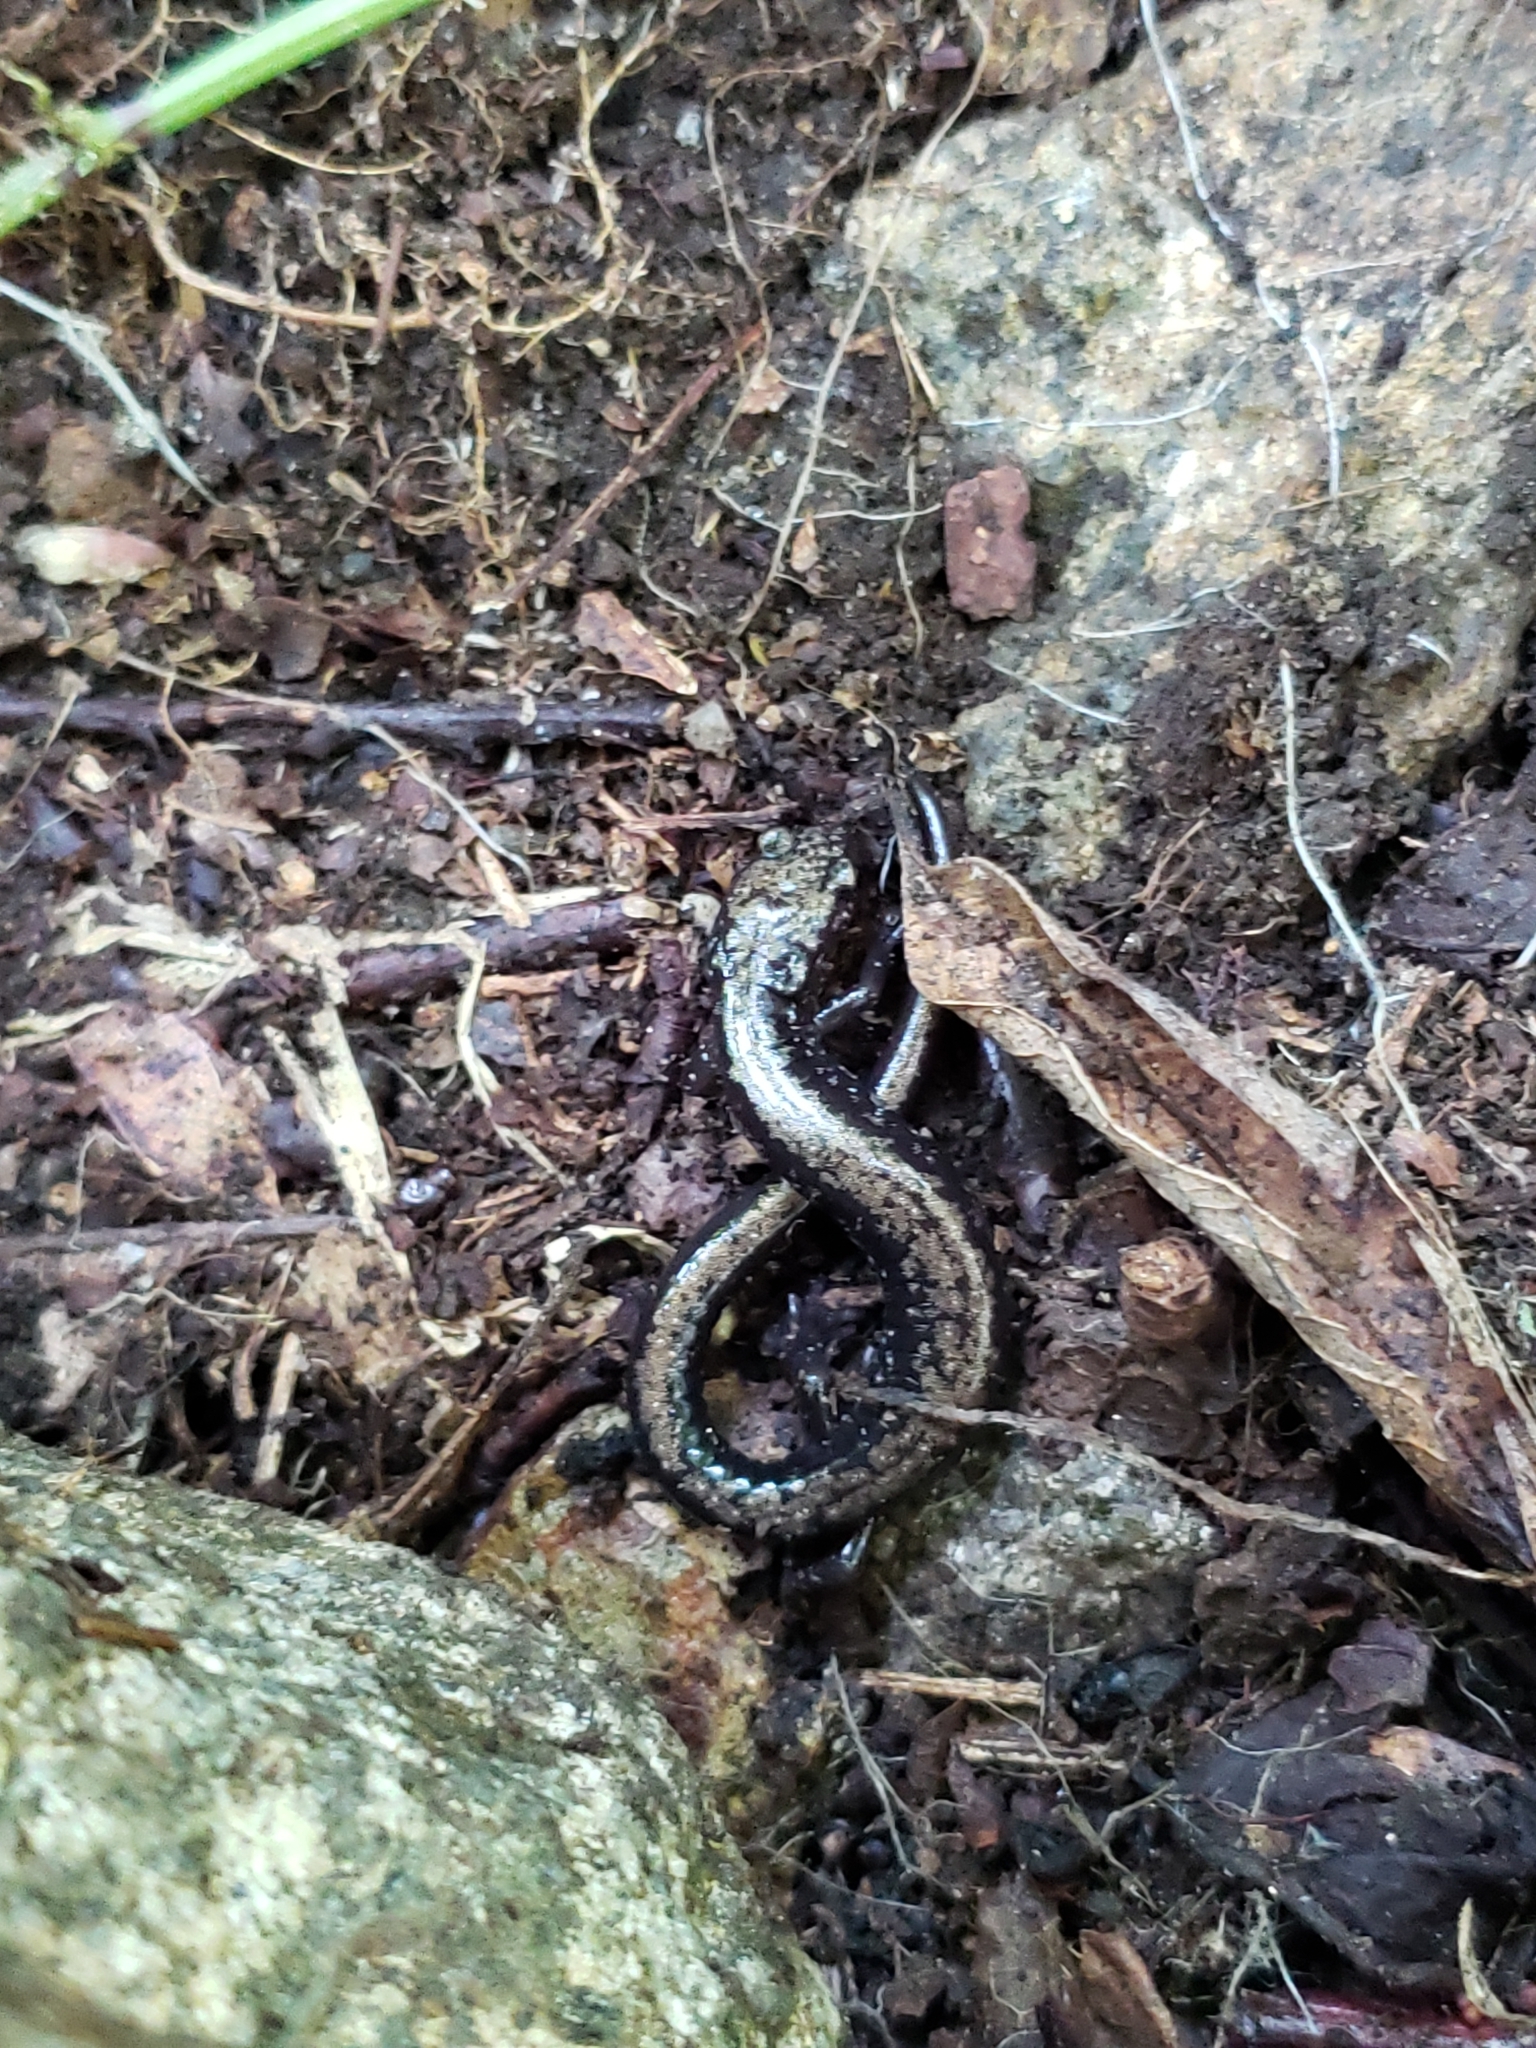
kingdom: Animalia
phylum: Chordata
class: Amphibia
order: Caudata
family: Plethodontidae
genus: Plethodon
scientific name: Plethodon hubrichti
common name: Peaks of otter salamander
